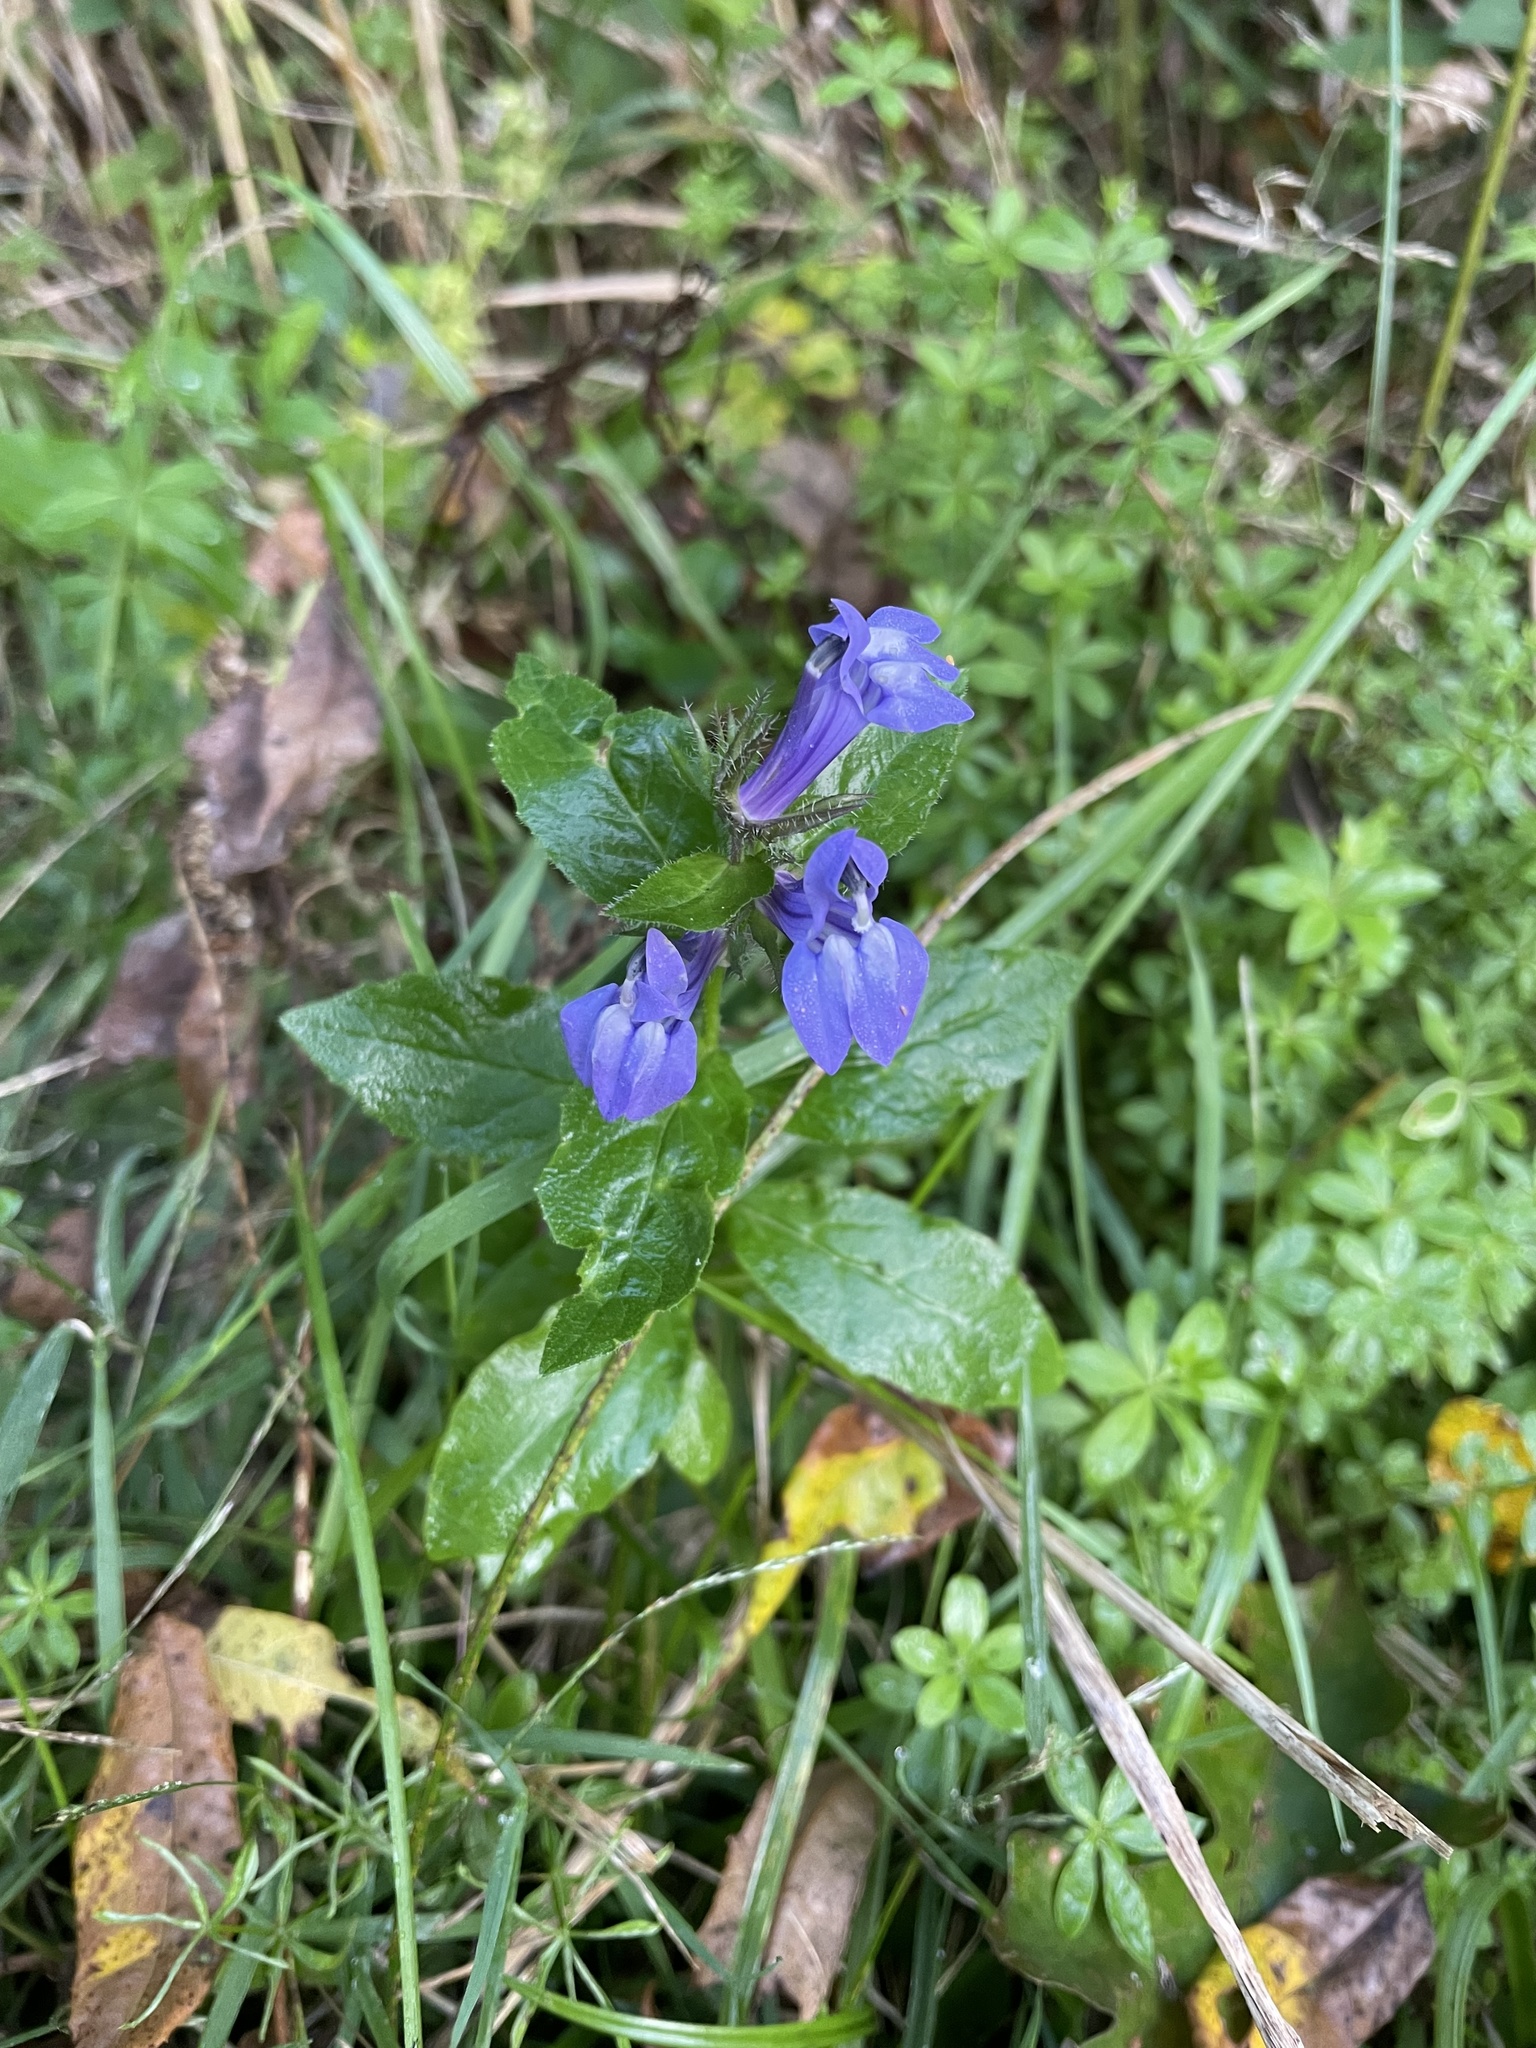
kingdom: Plantae
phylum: Tracheophyta
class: Magnoliopsida
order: Asterales
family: Campanulaceae
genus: Lobelia
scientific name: Lobelia siphilitica
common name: Great lobelia
